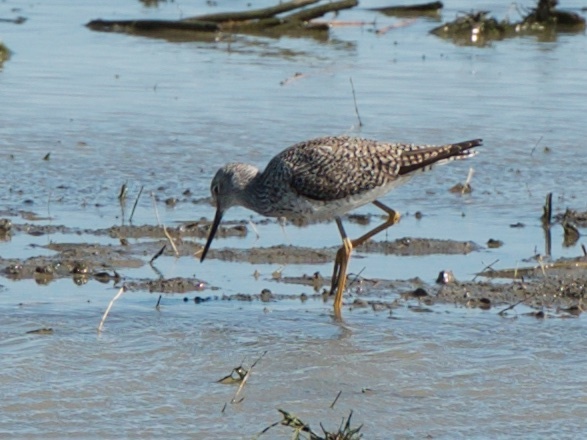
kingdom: Animalia
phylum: Chordata
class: Aves
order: Charadriiformes
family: Scolopacidae
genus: Tringa
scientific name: Tringa melanoleuca
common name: Greater yellowlegs
